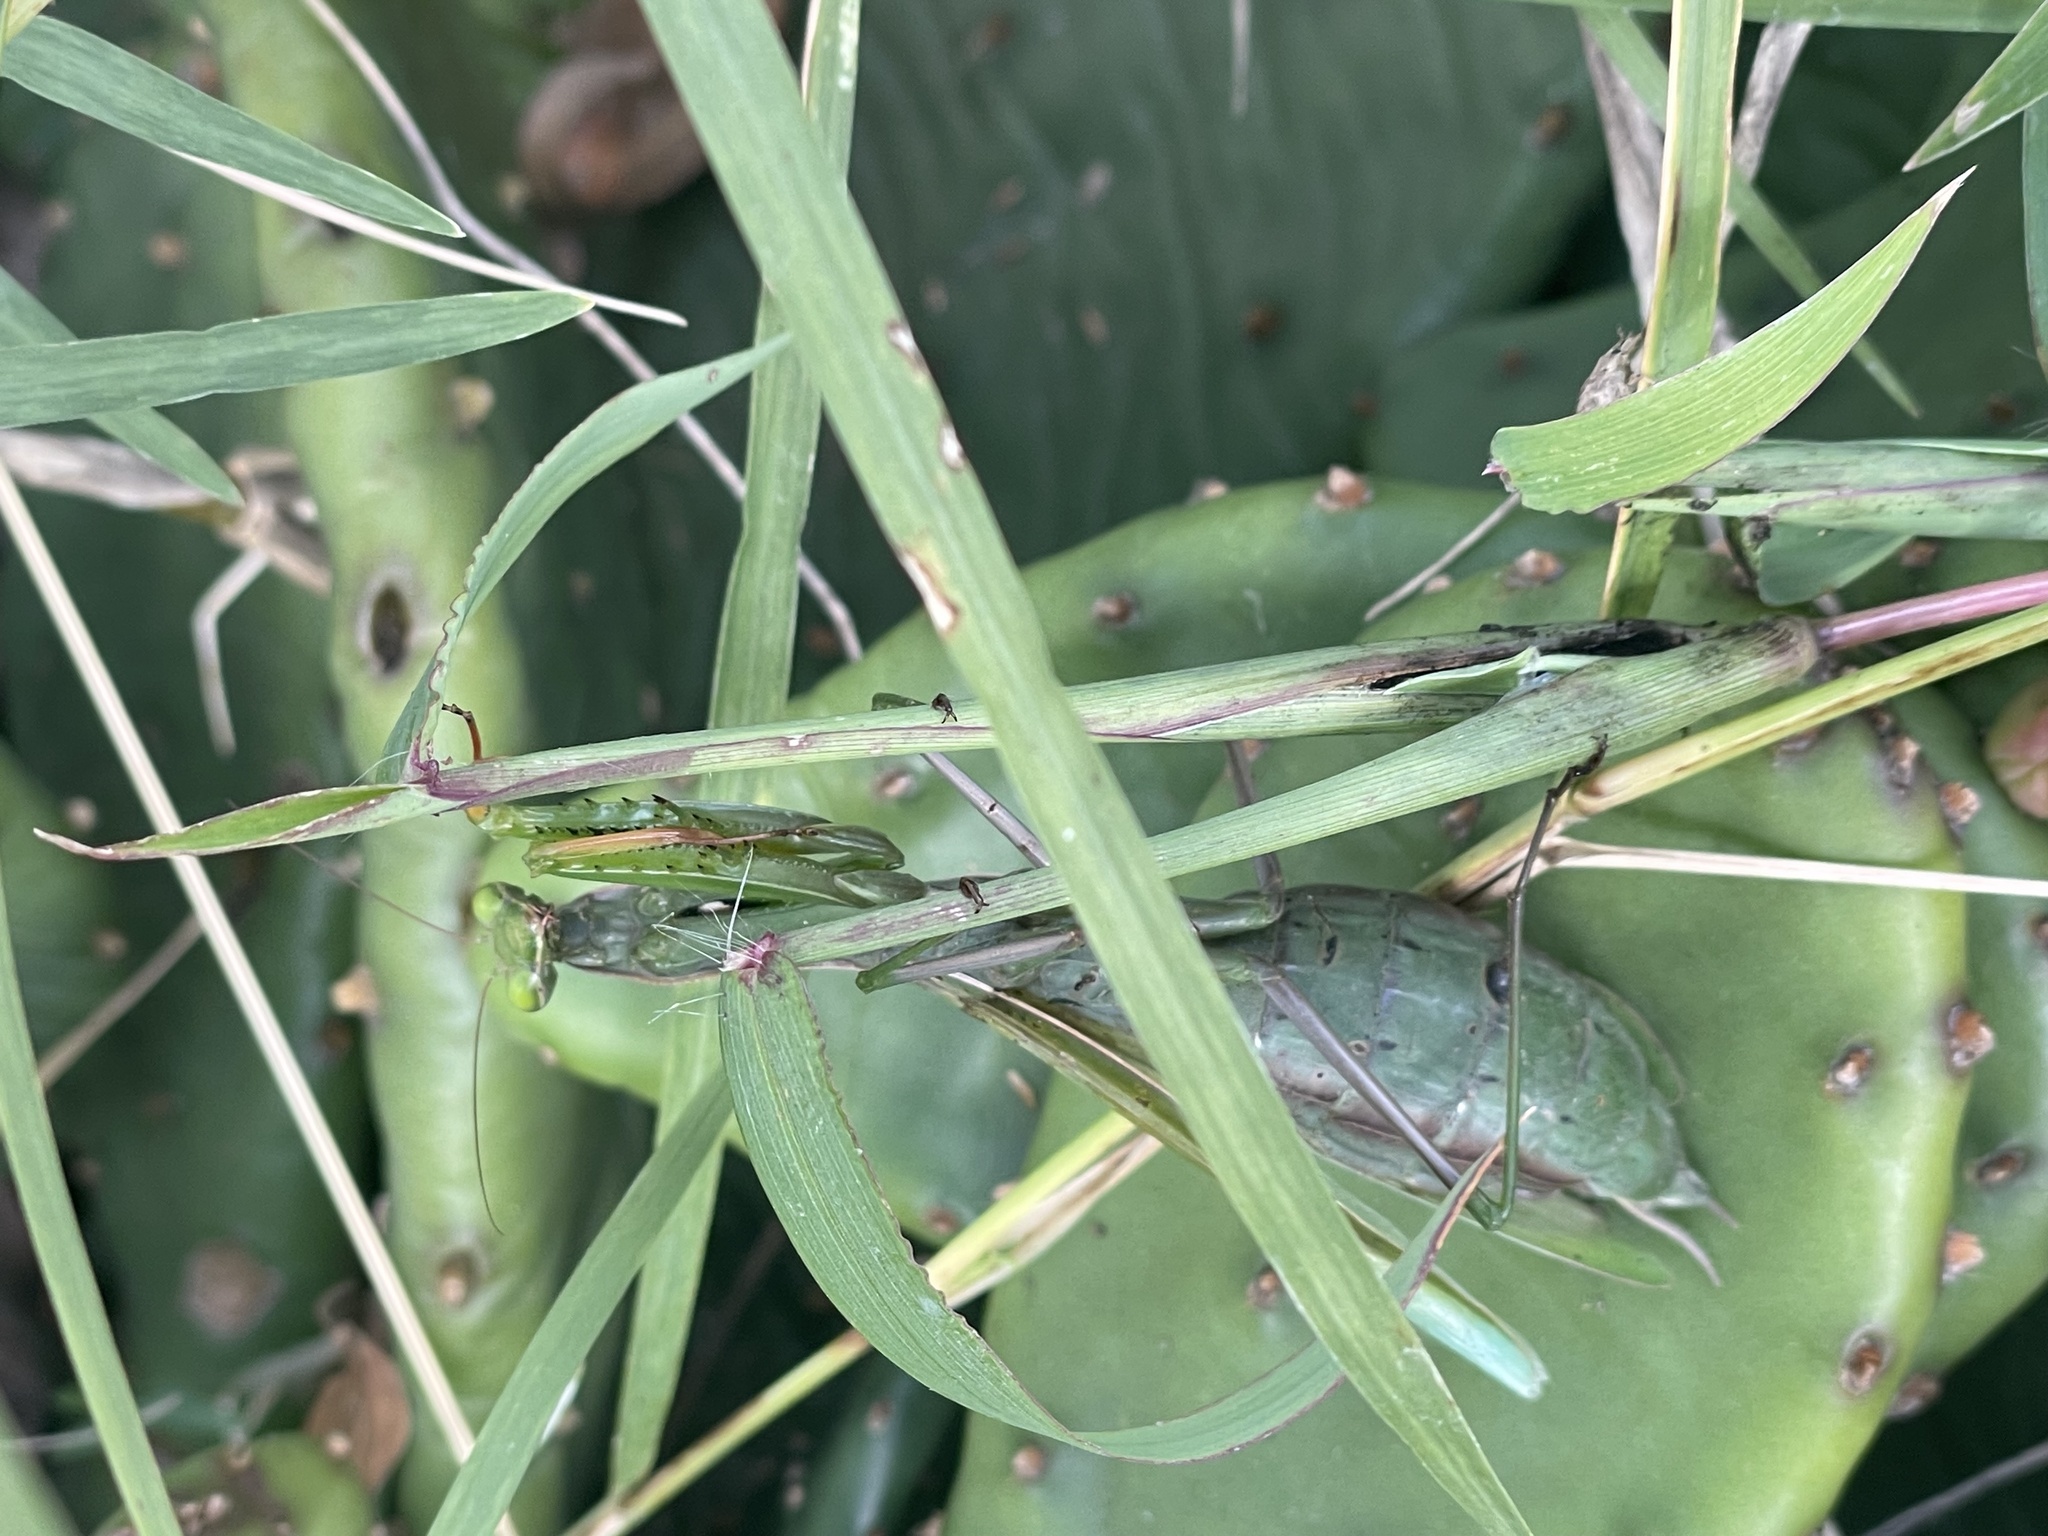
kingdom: Animalia
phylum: Arthropoda
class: Insecta
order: Mantodea
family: Mantidae
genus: Mantis
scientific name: Mantis religiosa
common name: Praying mantis
